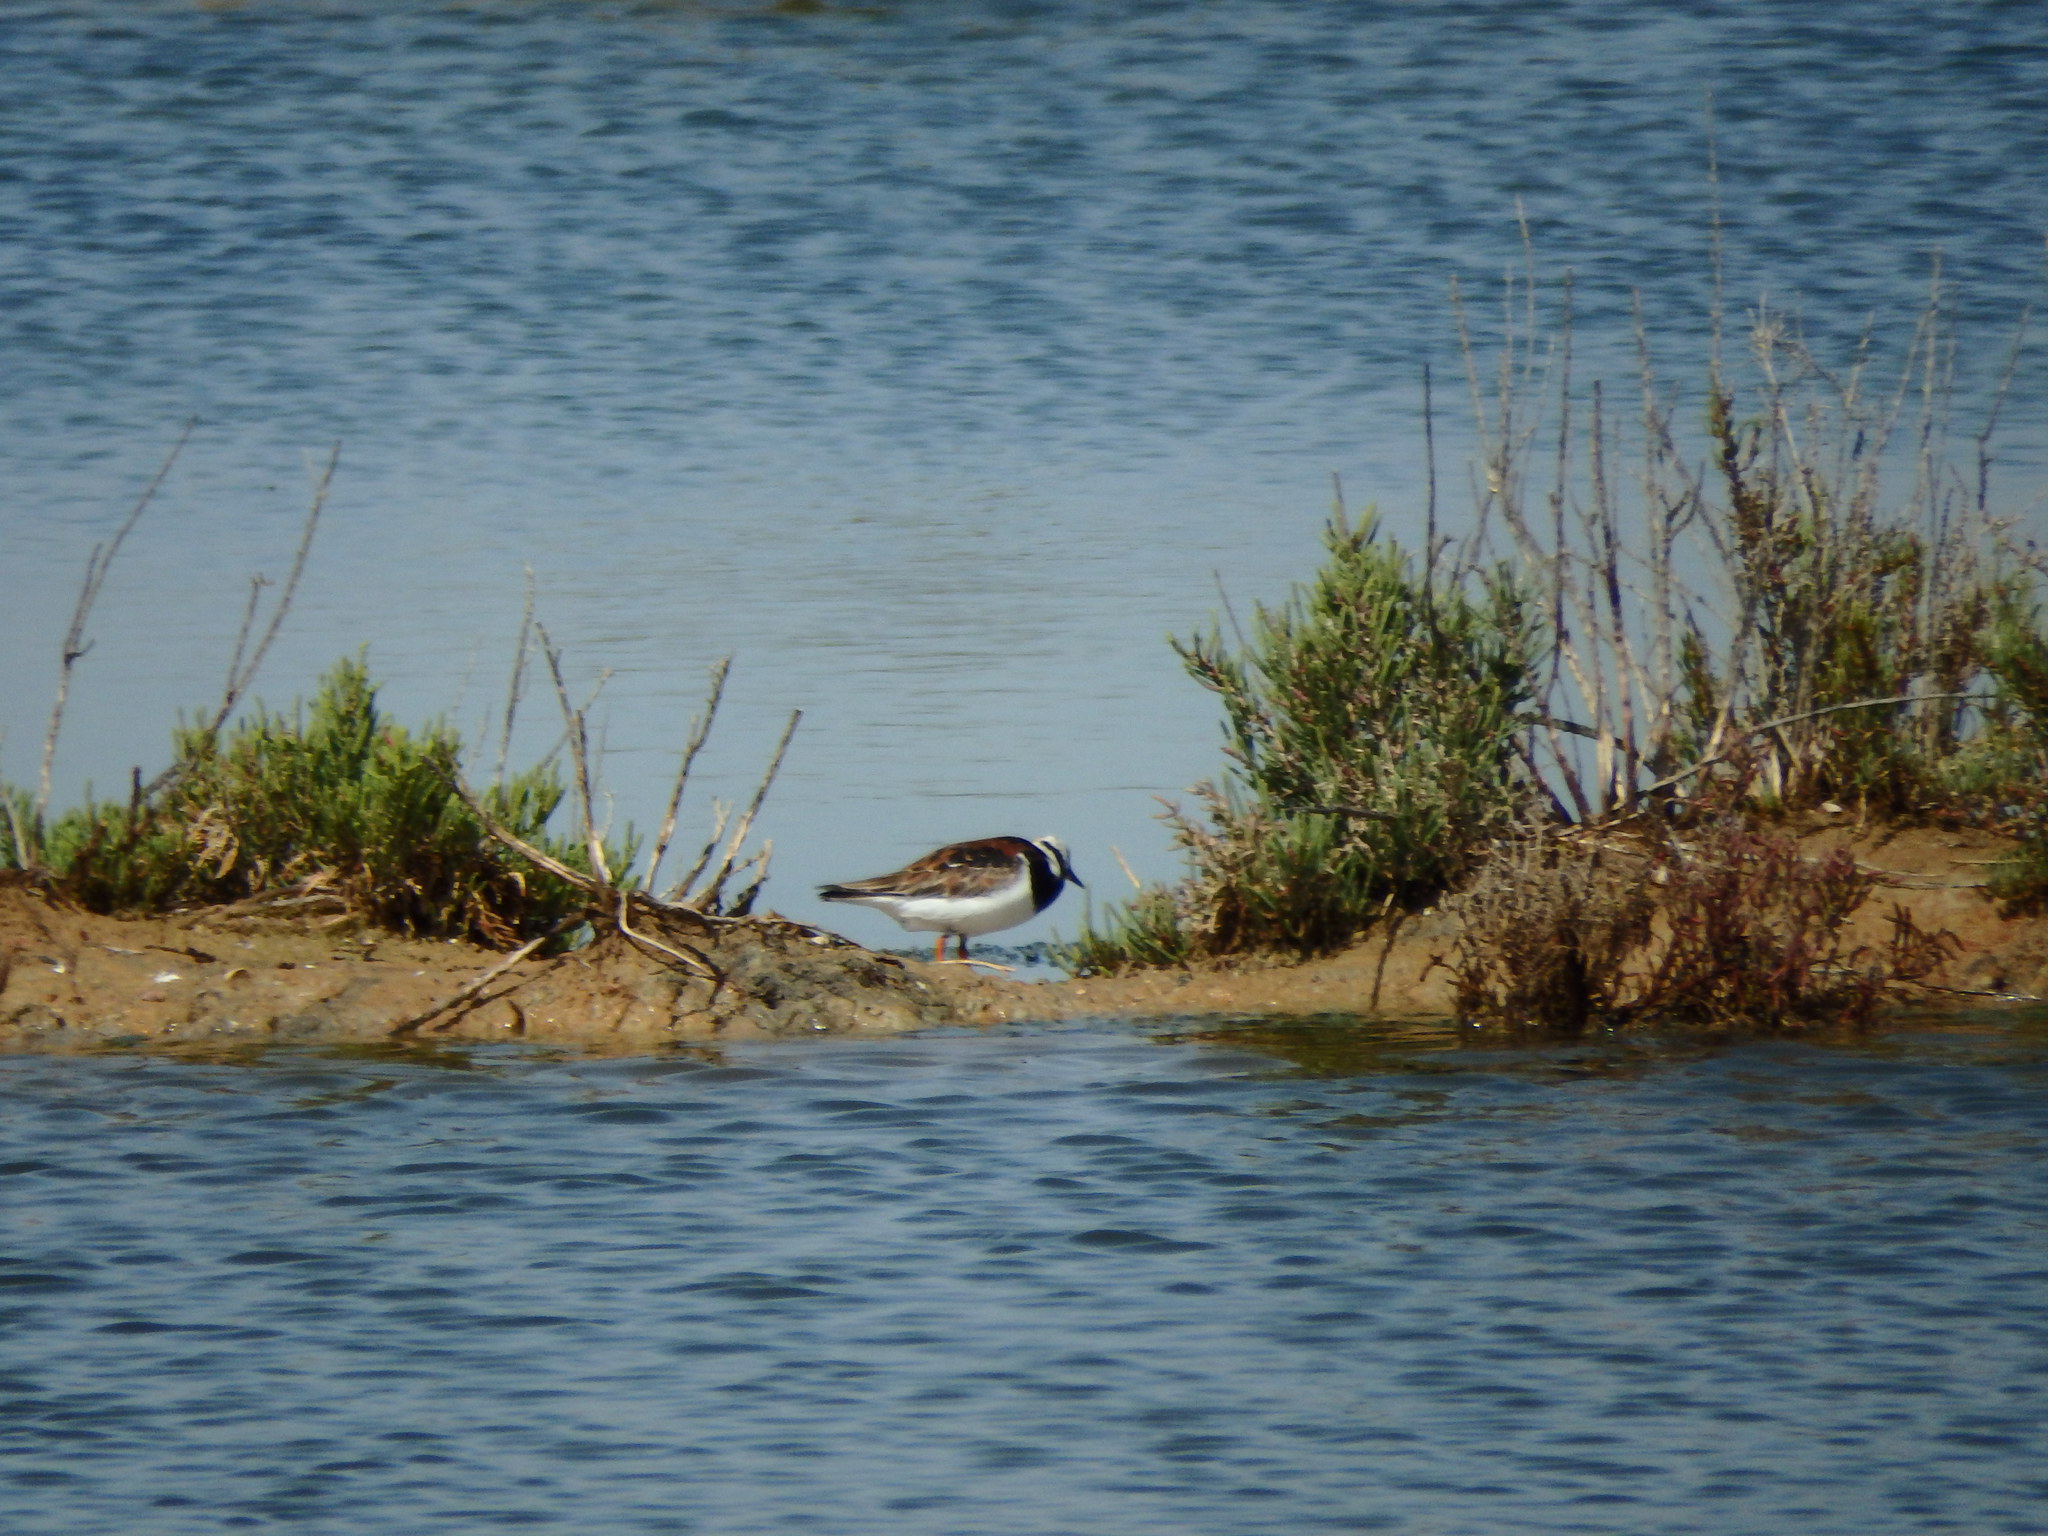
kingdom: Animalia
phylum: Chordata
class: Aves
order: Charadriiformes
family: Scolopacidae
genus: Arenaria
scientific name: Arenaria interpres
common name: Ruddy turnstone
